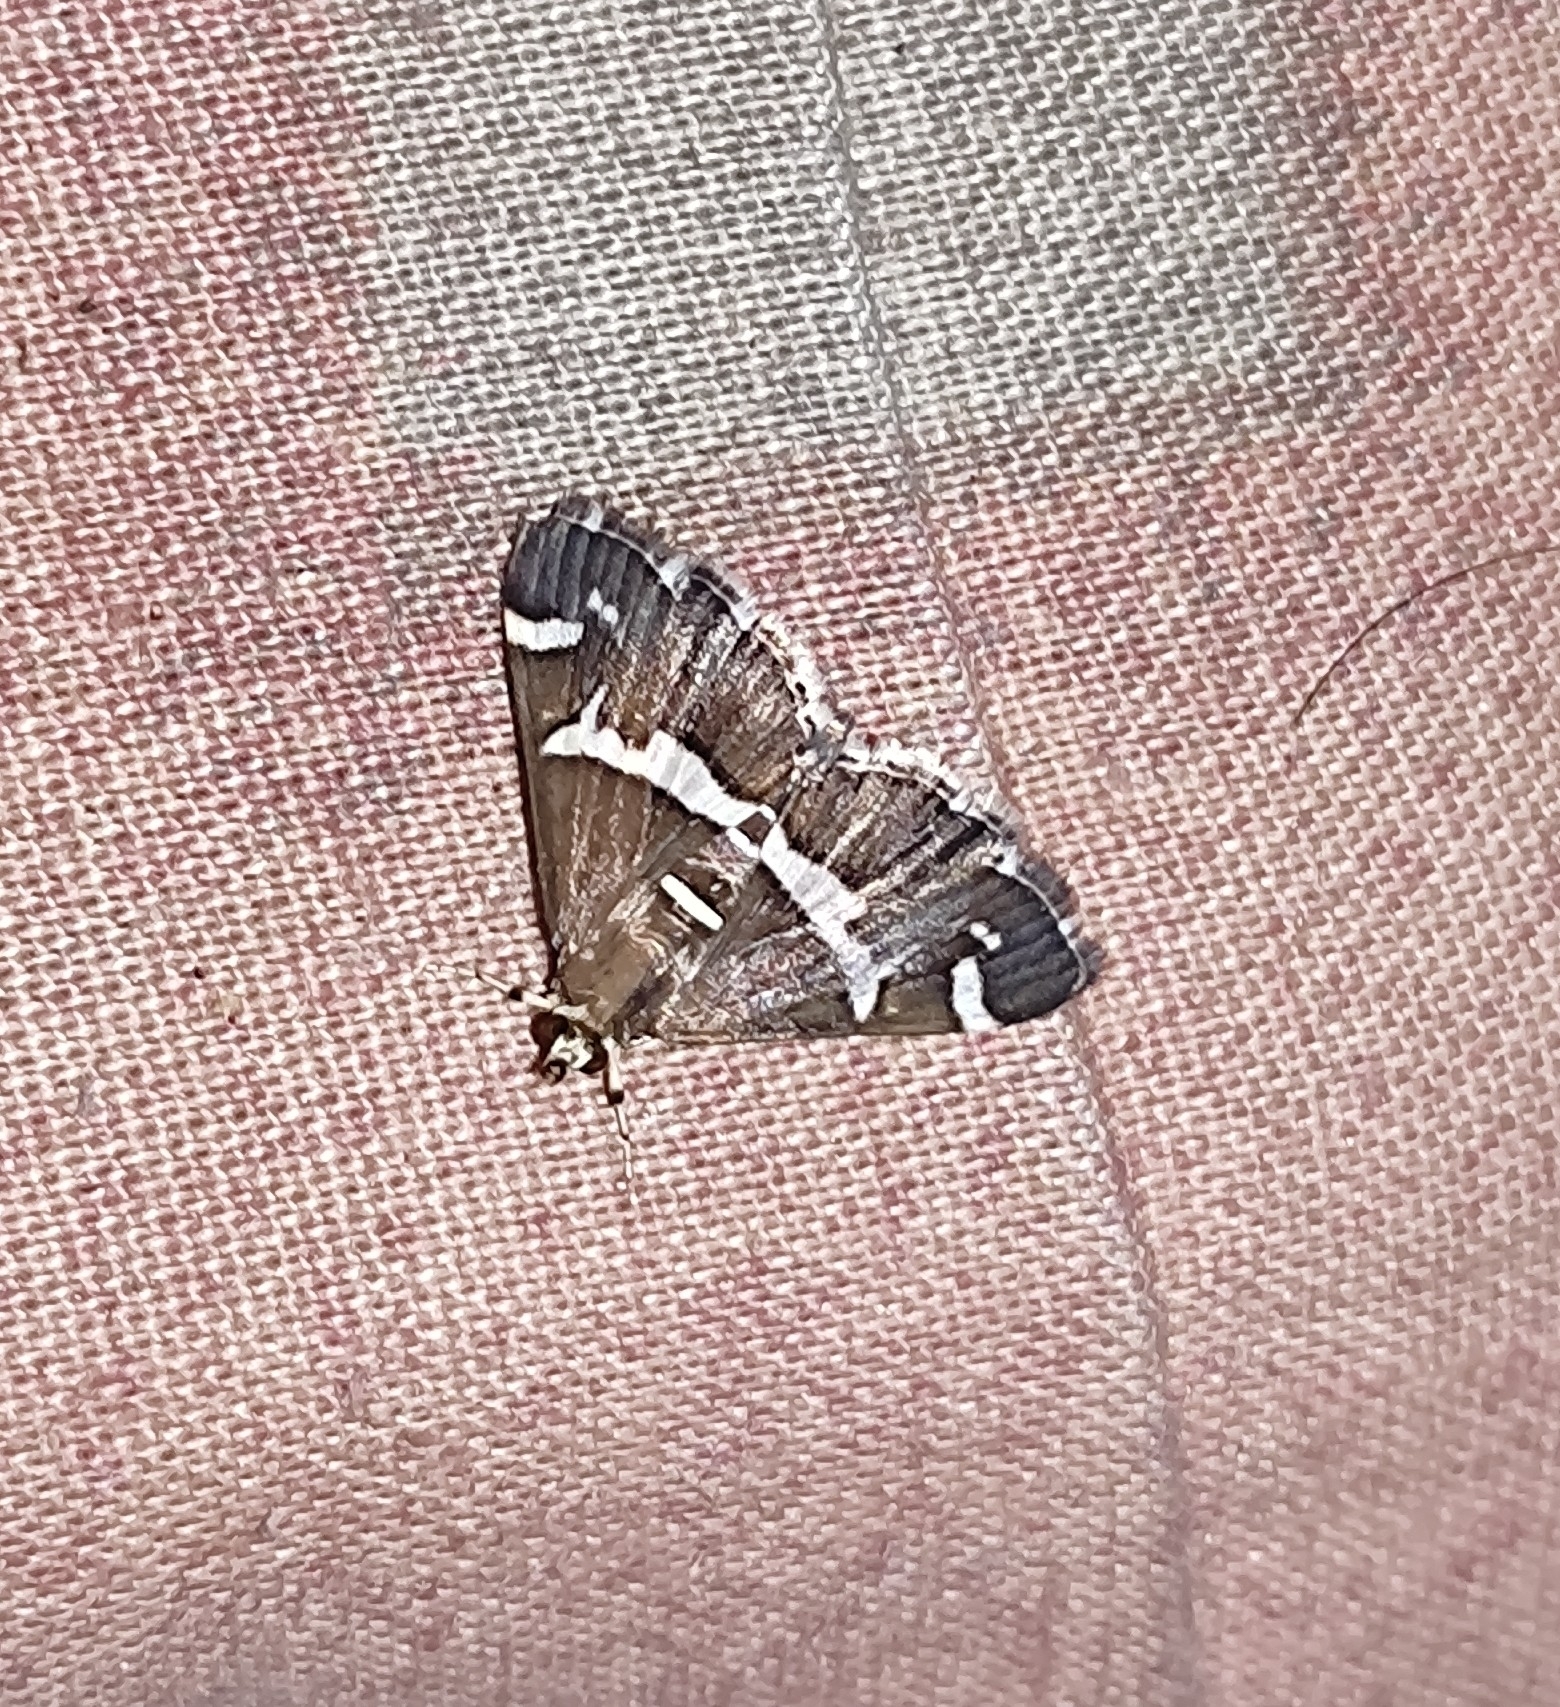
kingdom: Animalia
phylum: Arthropoda
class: Insecta
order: Lepidoptera
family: Crambidae
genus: Spoladea
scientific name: Spoladea recurvalis
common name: Beet webworm moth
